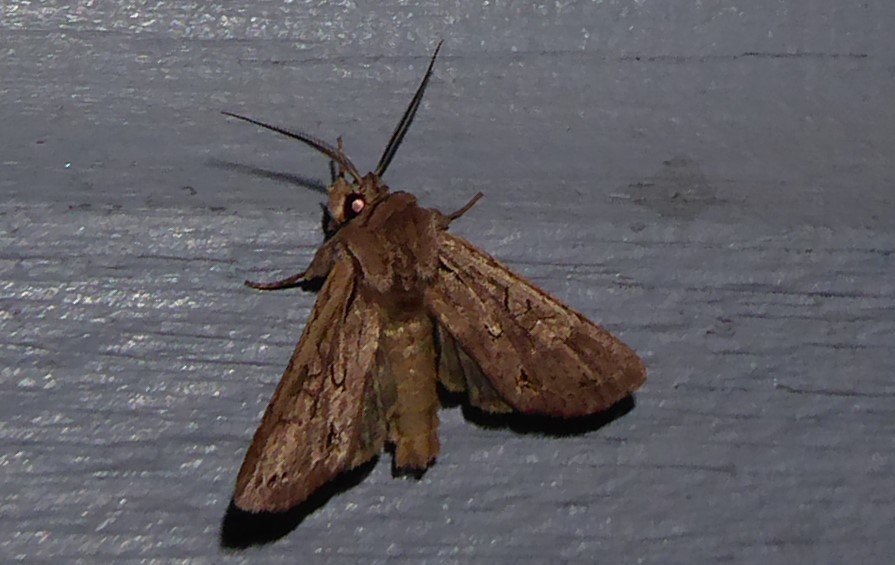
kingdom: Animalia
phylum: Arthropoda
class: Insecta
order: Lepidoptera
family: Noctuidae
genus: Ichneutica
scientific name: Ichneutica
